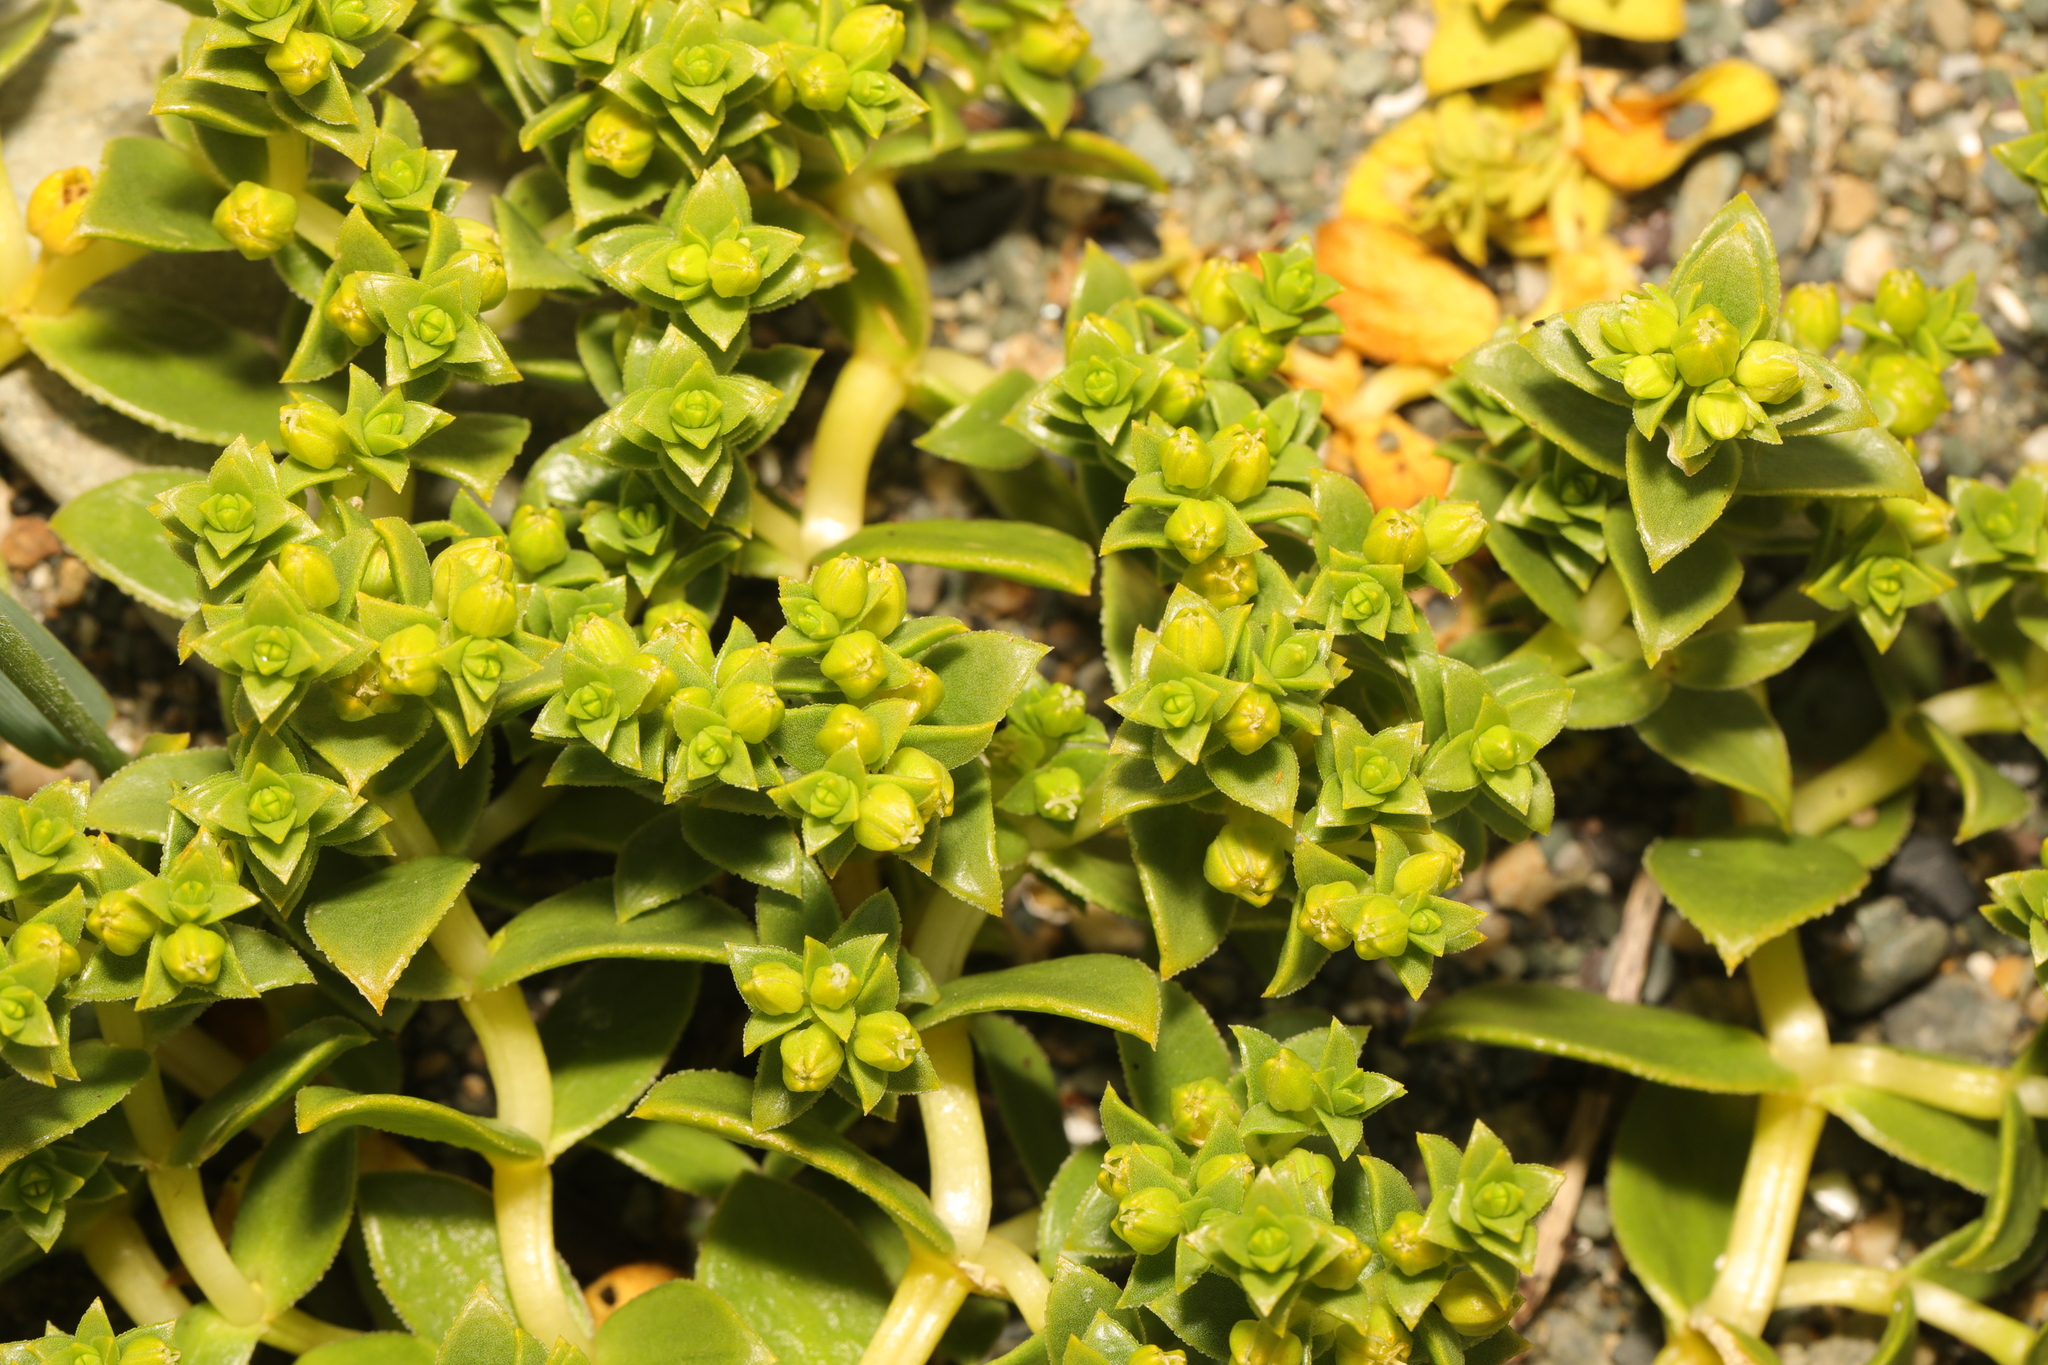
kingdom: Plantae
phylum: Tracheophyta
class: Magnoliopsida
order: Caryophyllales
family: Caryophyllaceae
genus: Honckenya
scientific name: Honckenya peploides
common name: Sea sandwort
